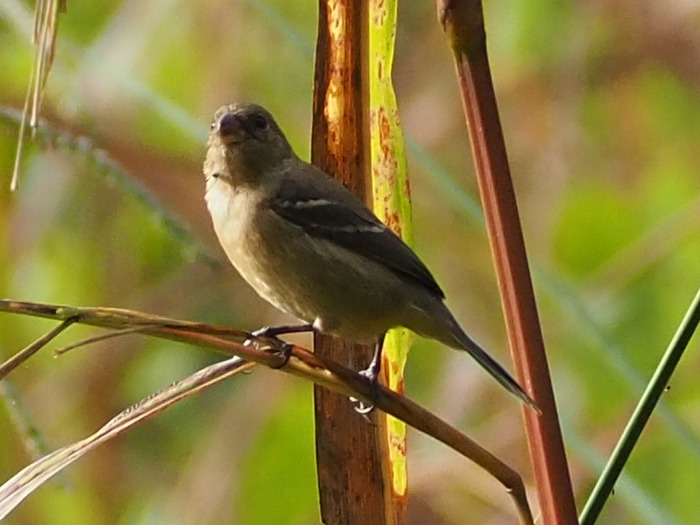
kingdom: Animalia
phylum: Chordata
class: Aves
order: Passeriformes
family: Thraupidae
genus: Sporophila
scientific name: Sporophila morelleti
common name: Morelet's seedeater
